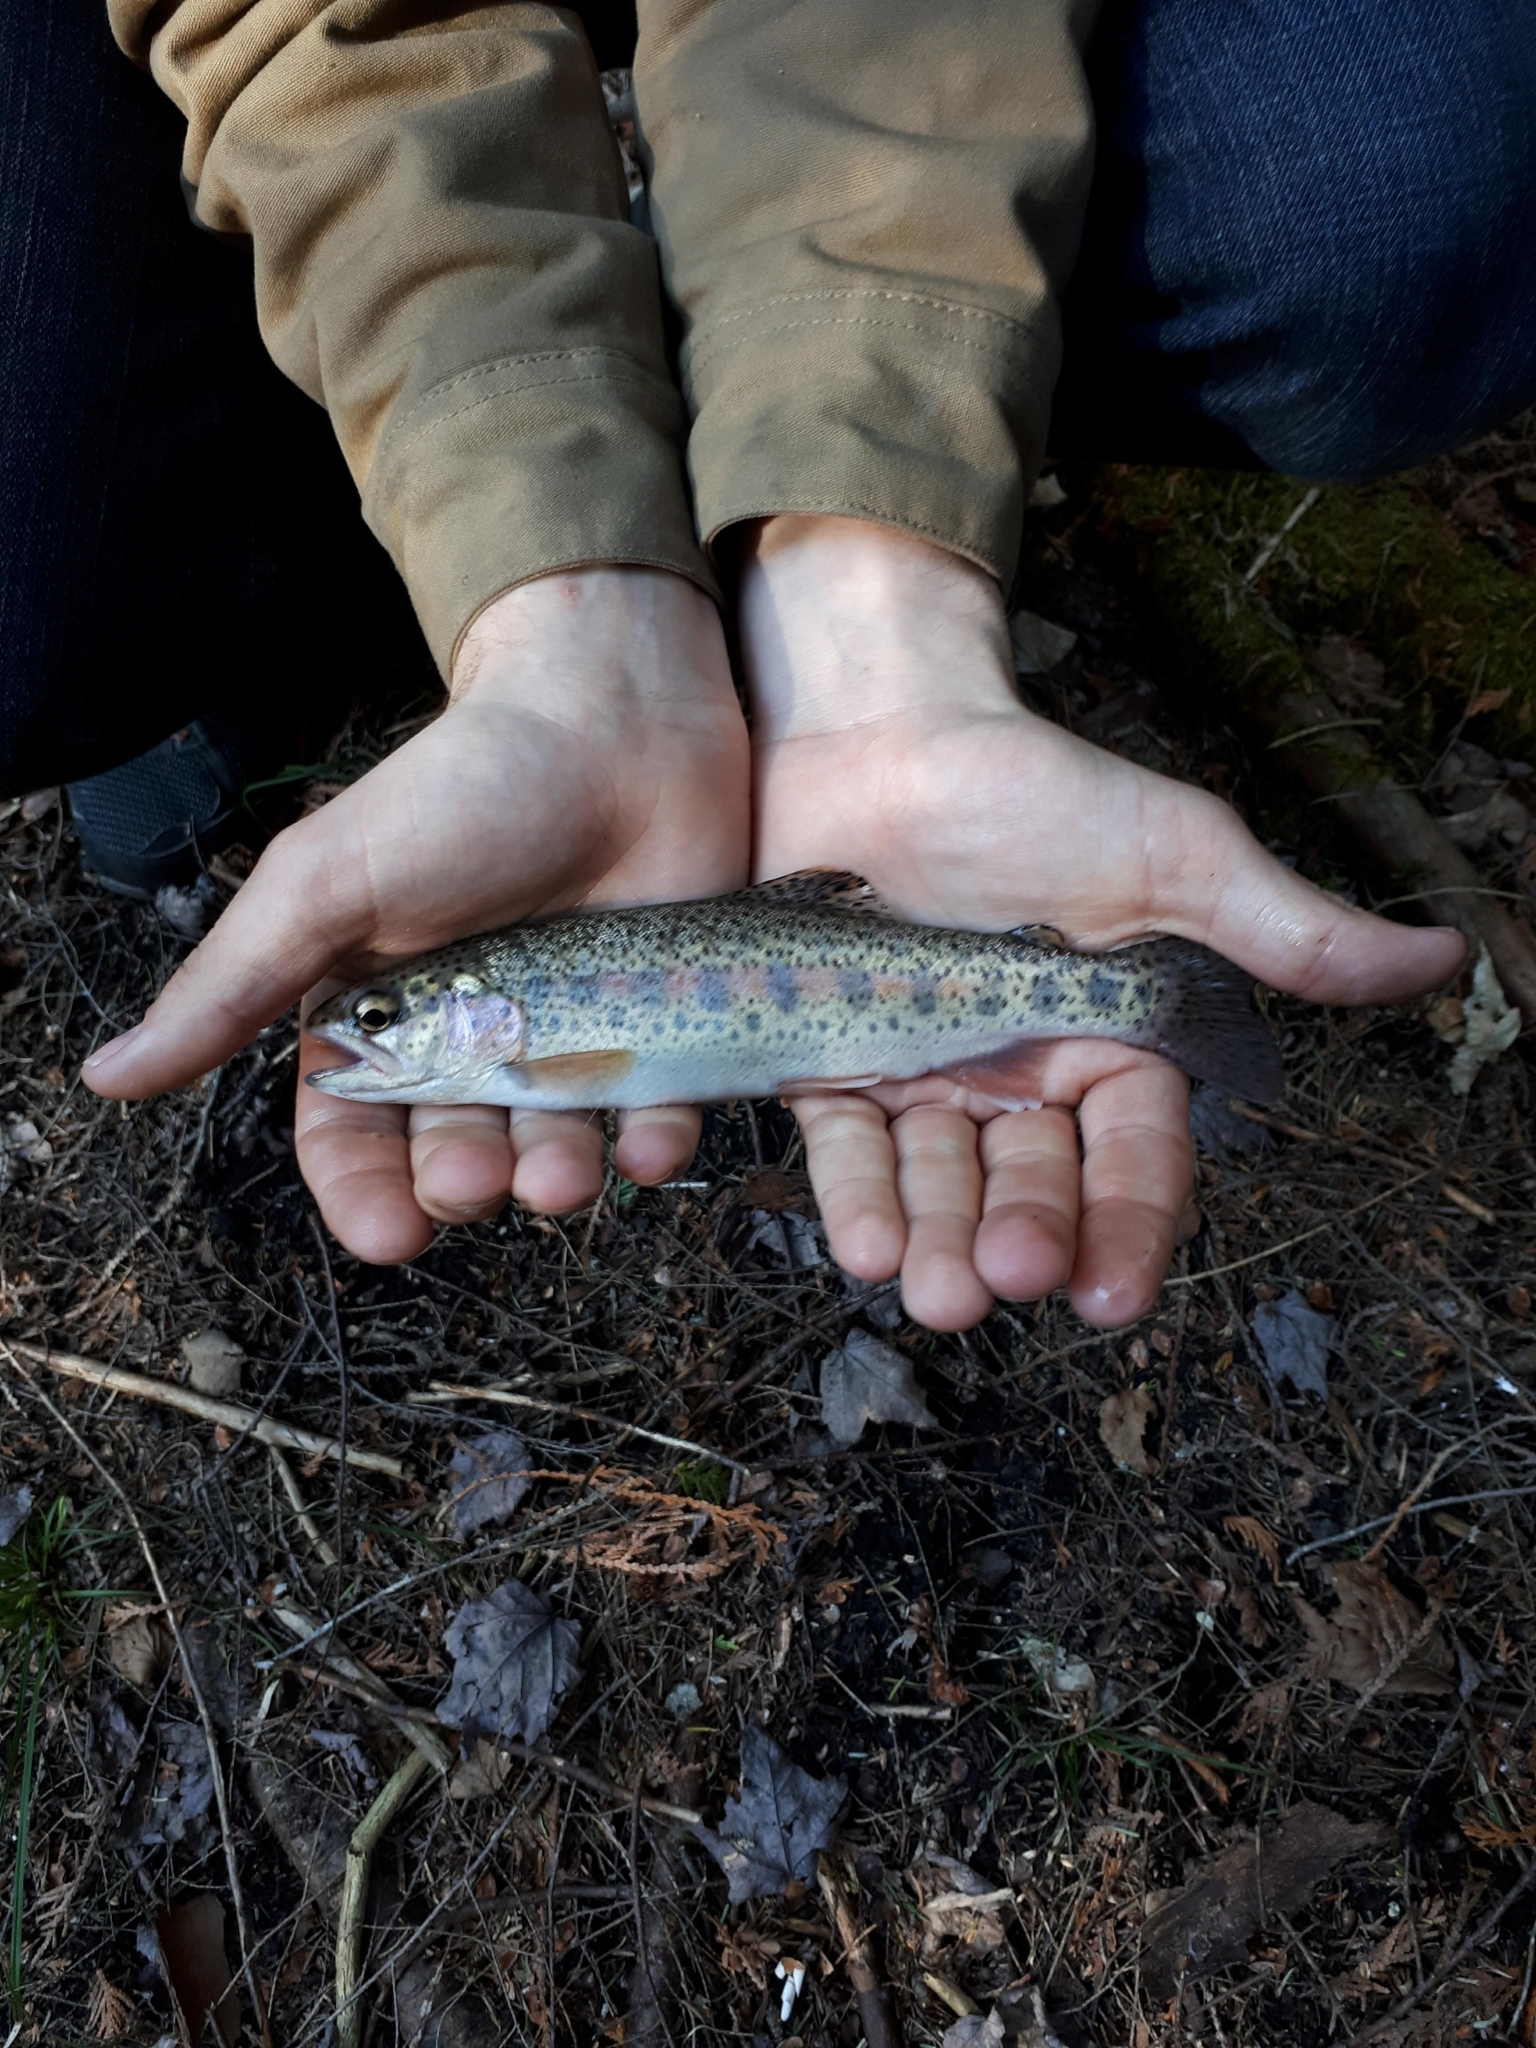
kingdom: Animalia
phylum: Chordata
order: Salmoniformes
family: Salmonidae
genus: Oncorhynchus
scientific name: Oncorhynchus mykiss
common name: Rainbow trout
